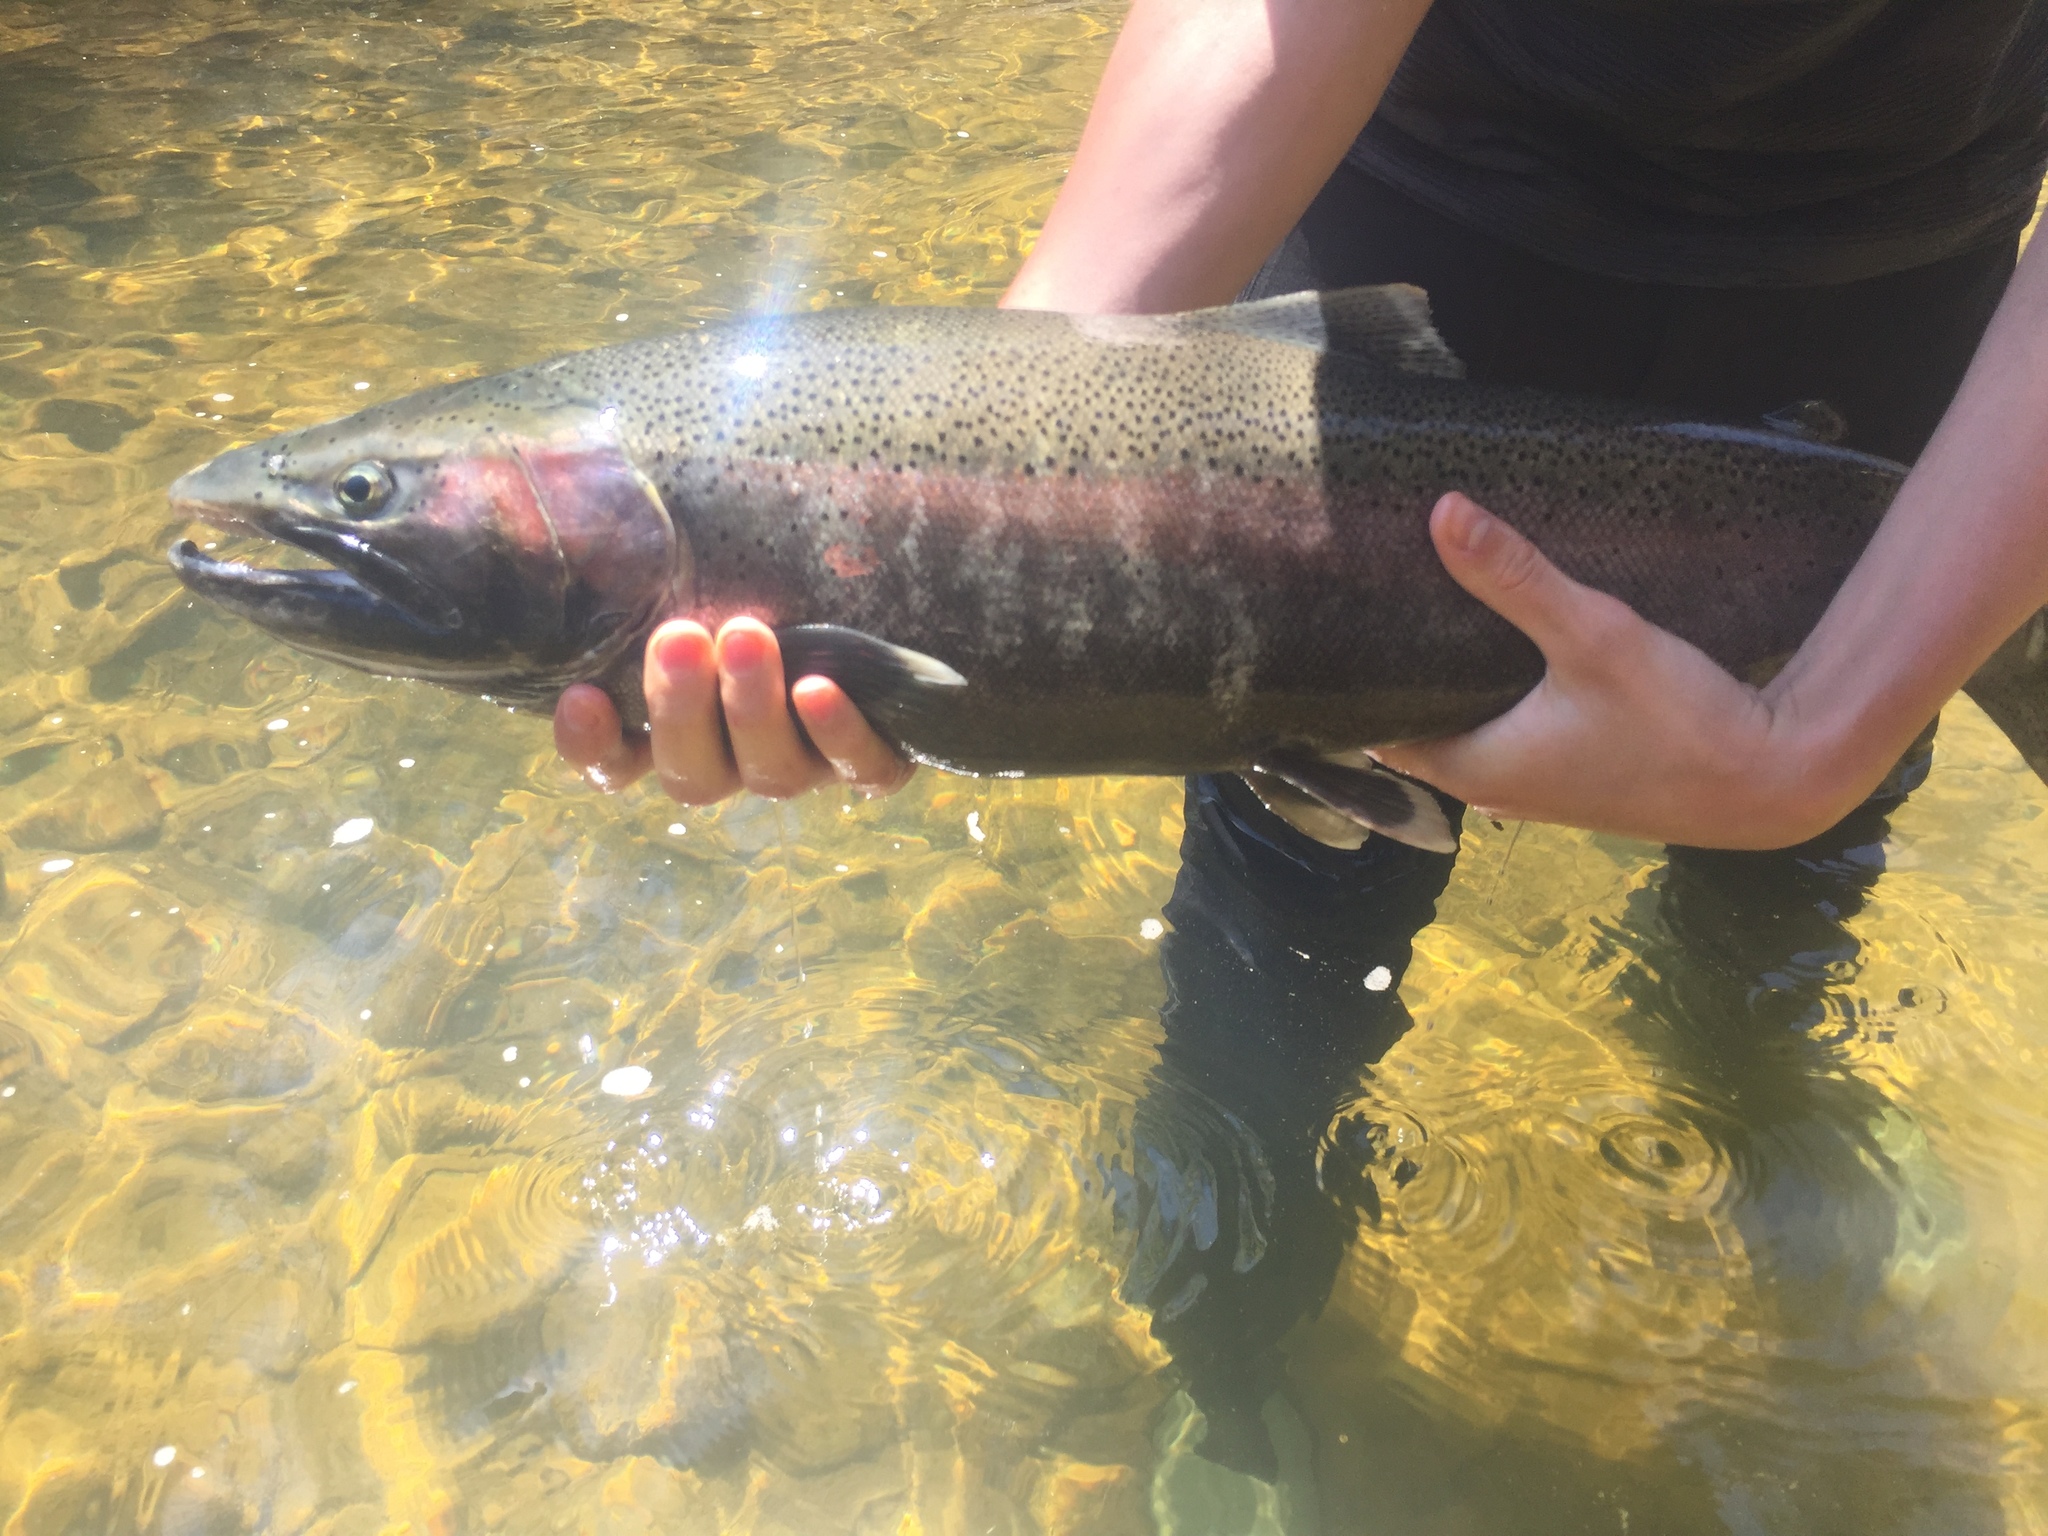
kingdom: Animalia
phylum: Chordata
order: Salmoniformes
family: Salmonidae
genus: Oncorhynchus
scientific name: Oncorhynchus mykiss
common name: Rainbow trout
